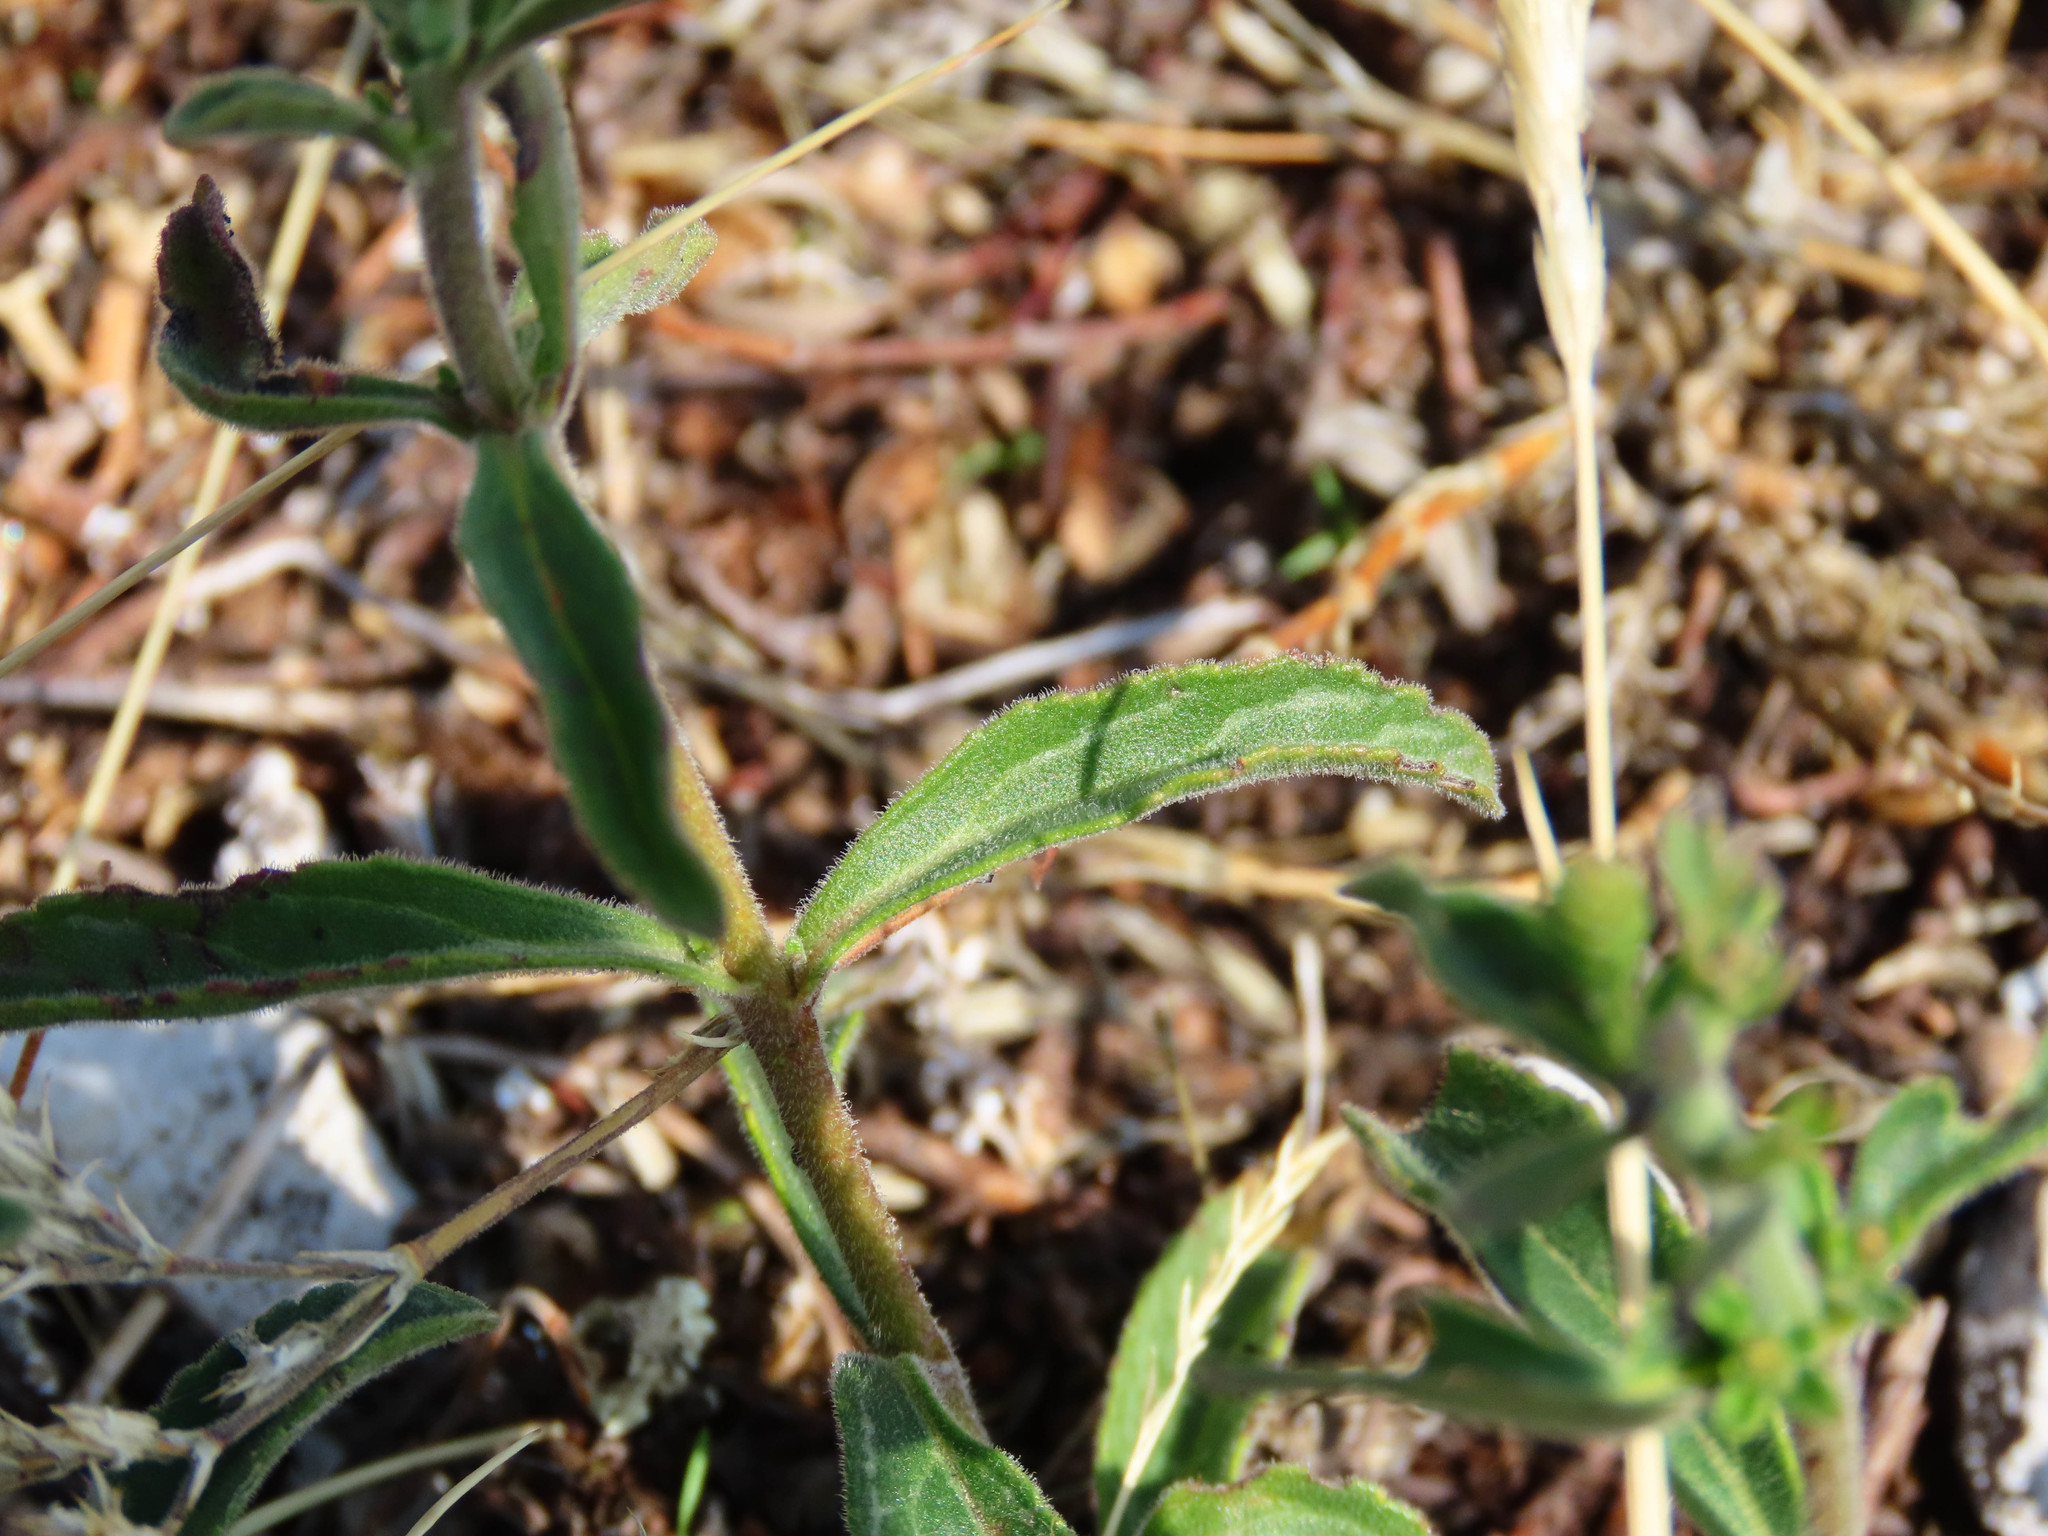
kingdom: Plantae
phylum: Tracheophyta
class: Magnoliopsida
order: Lamiales
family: Plantaginaceae
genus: Veronica
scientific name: Veronica spicata
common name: Spiked speedwell
